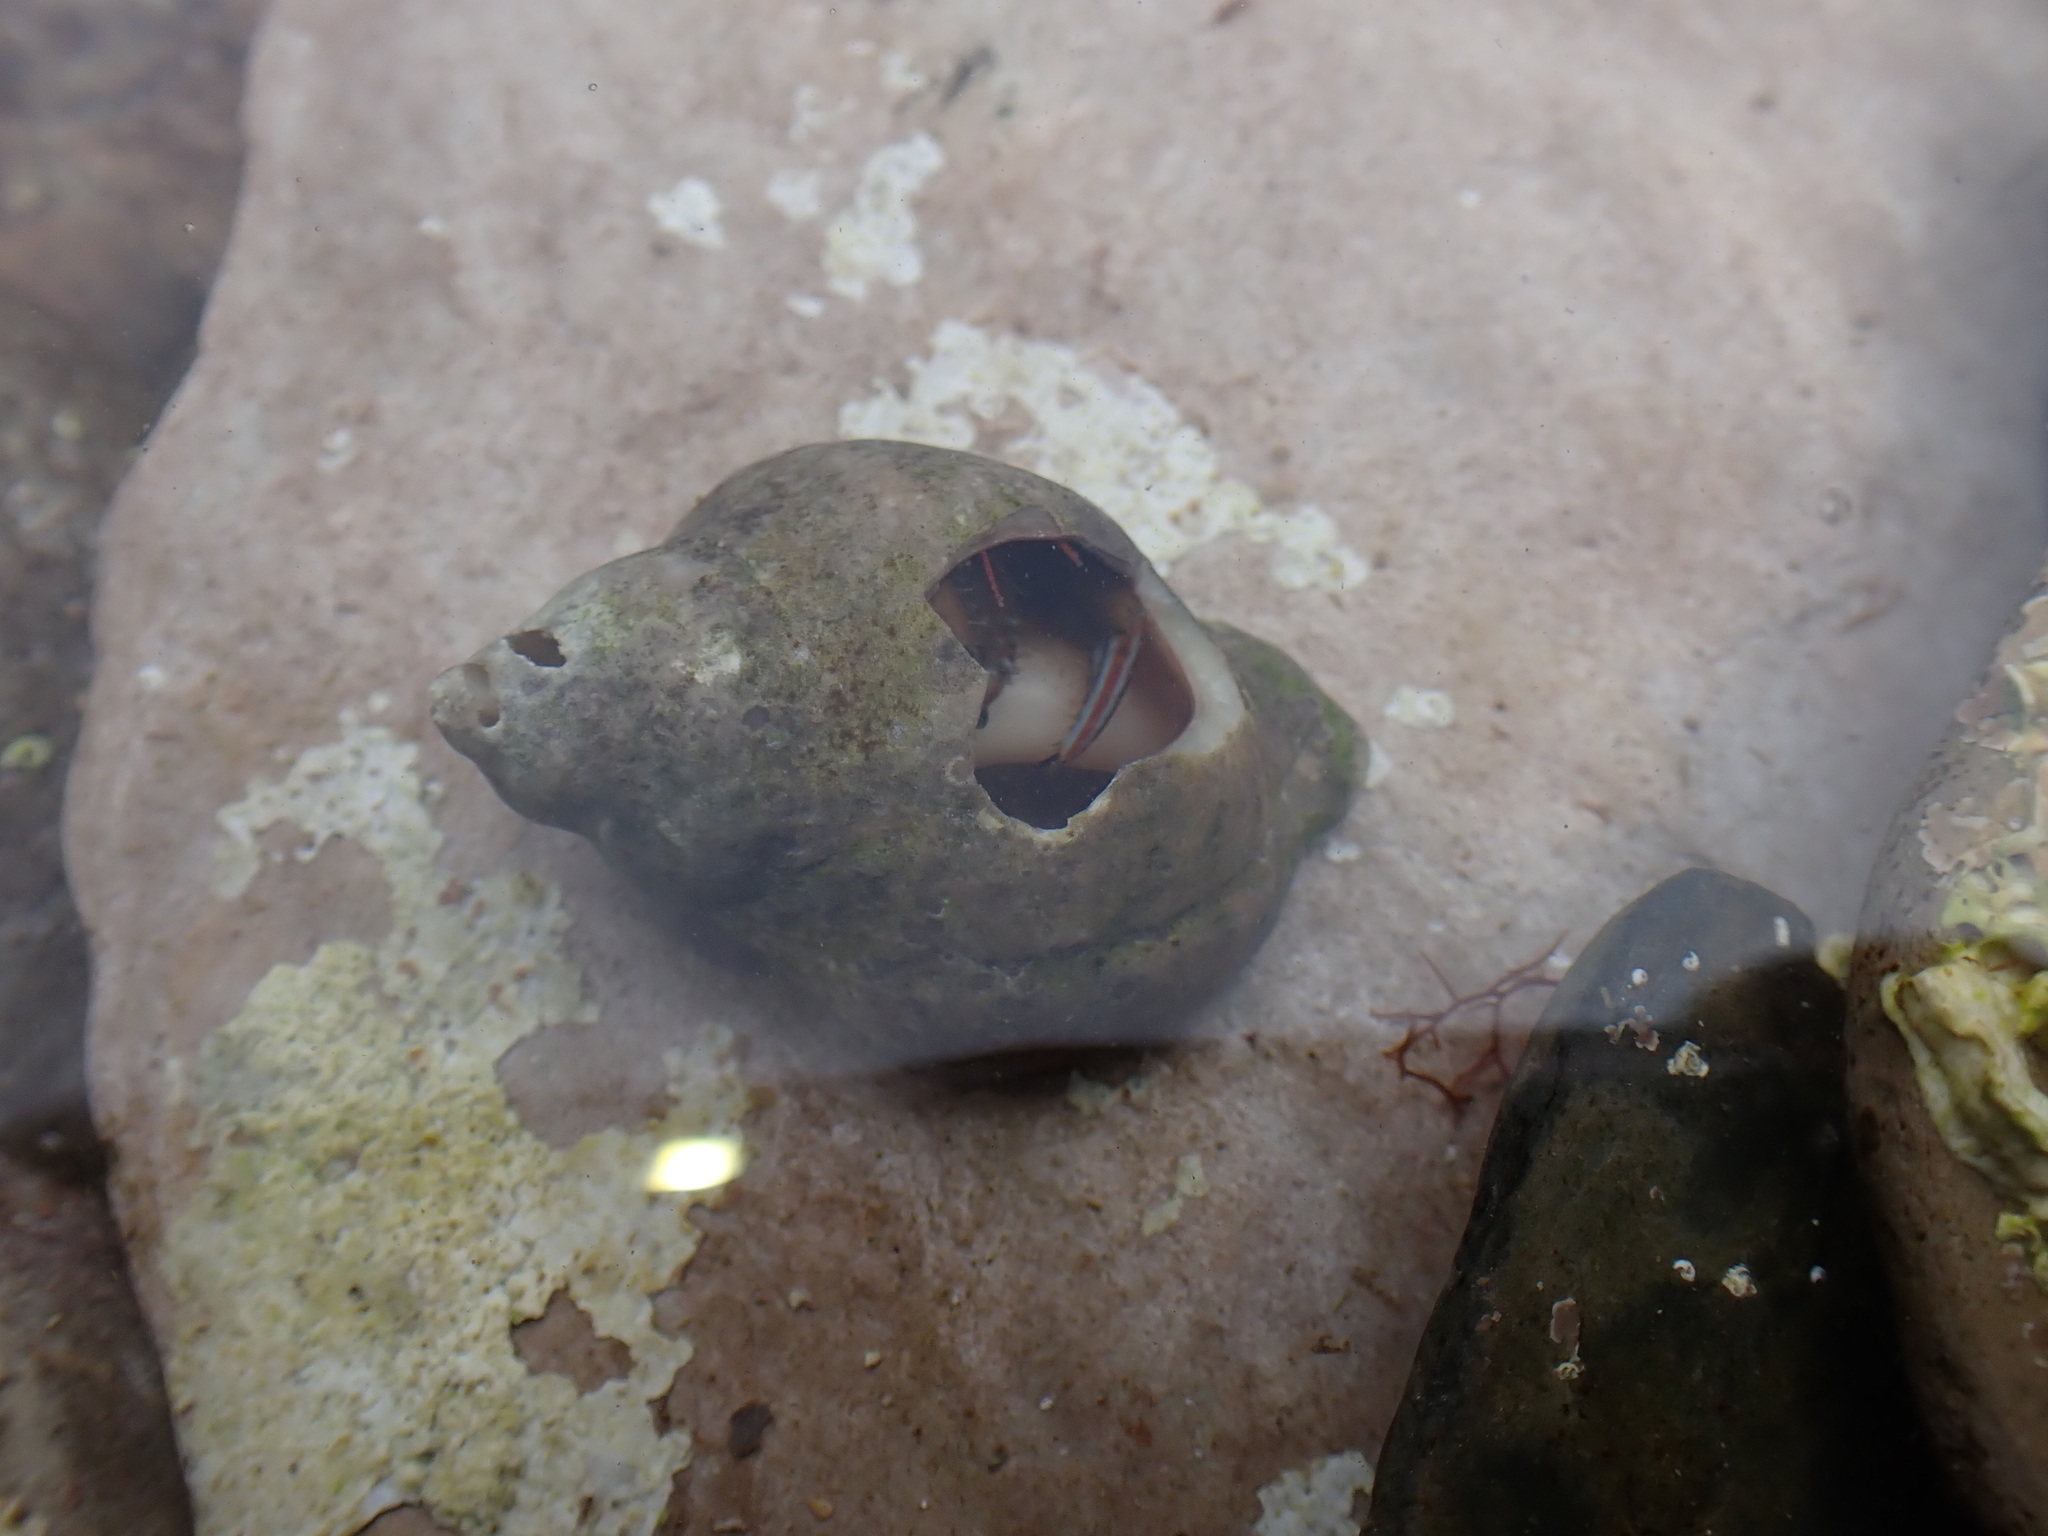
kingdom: Animalia
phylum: Arthropoda
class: Malacostraca
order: Decapoda
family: Diogenidae
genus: Clibanarius
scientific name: Clibanarius erythropus
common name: Hermit crab
